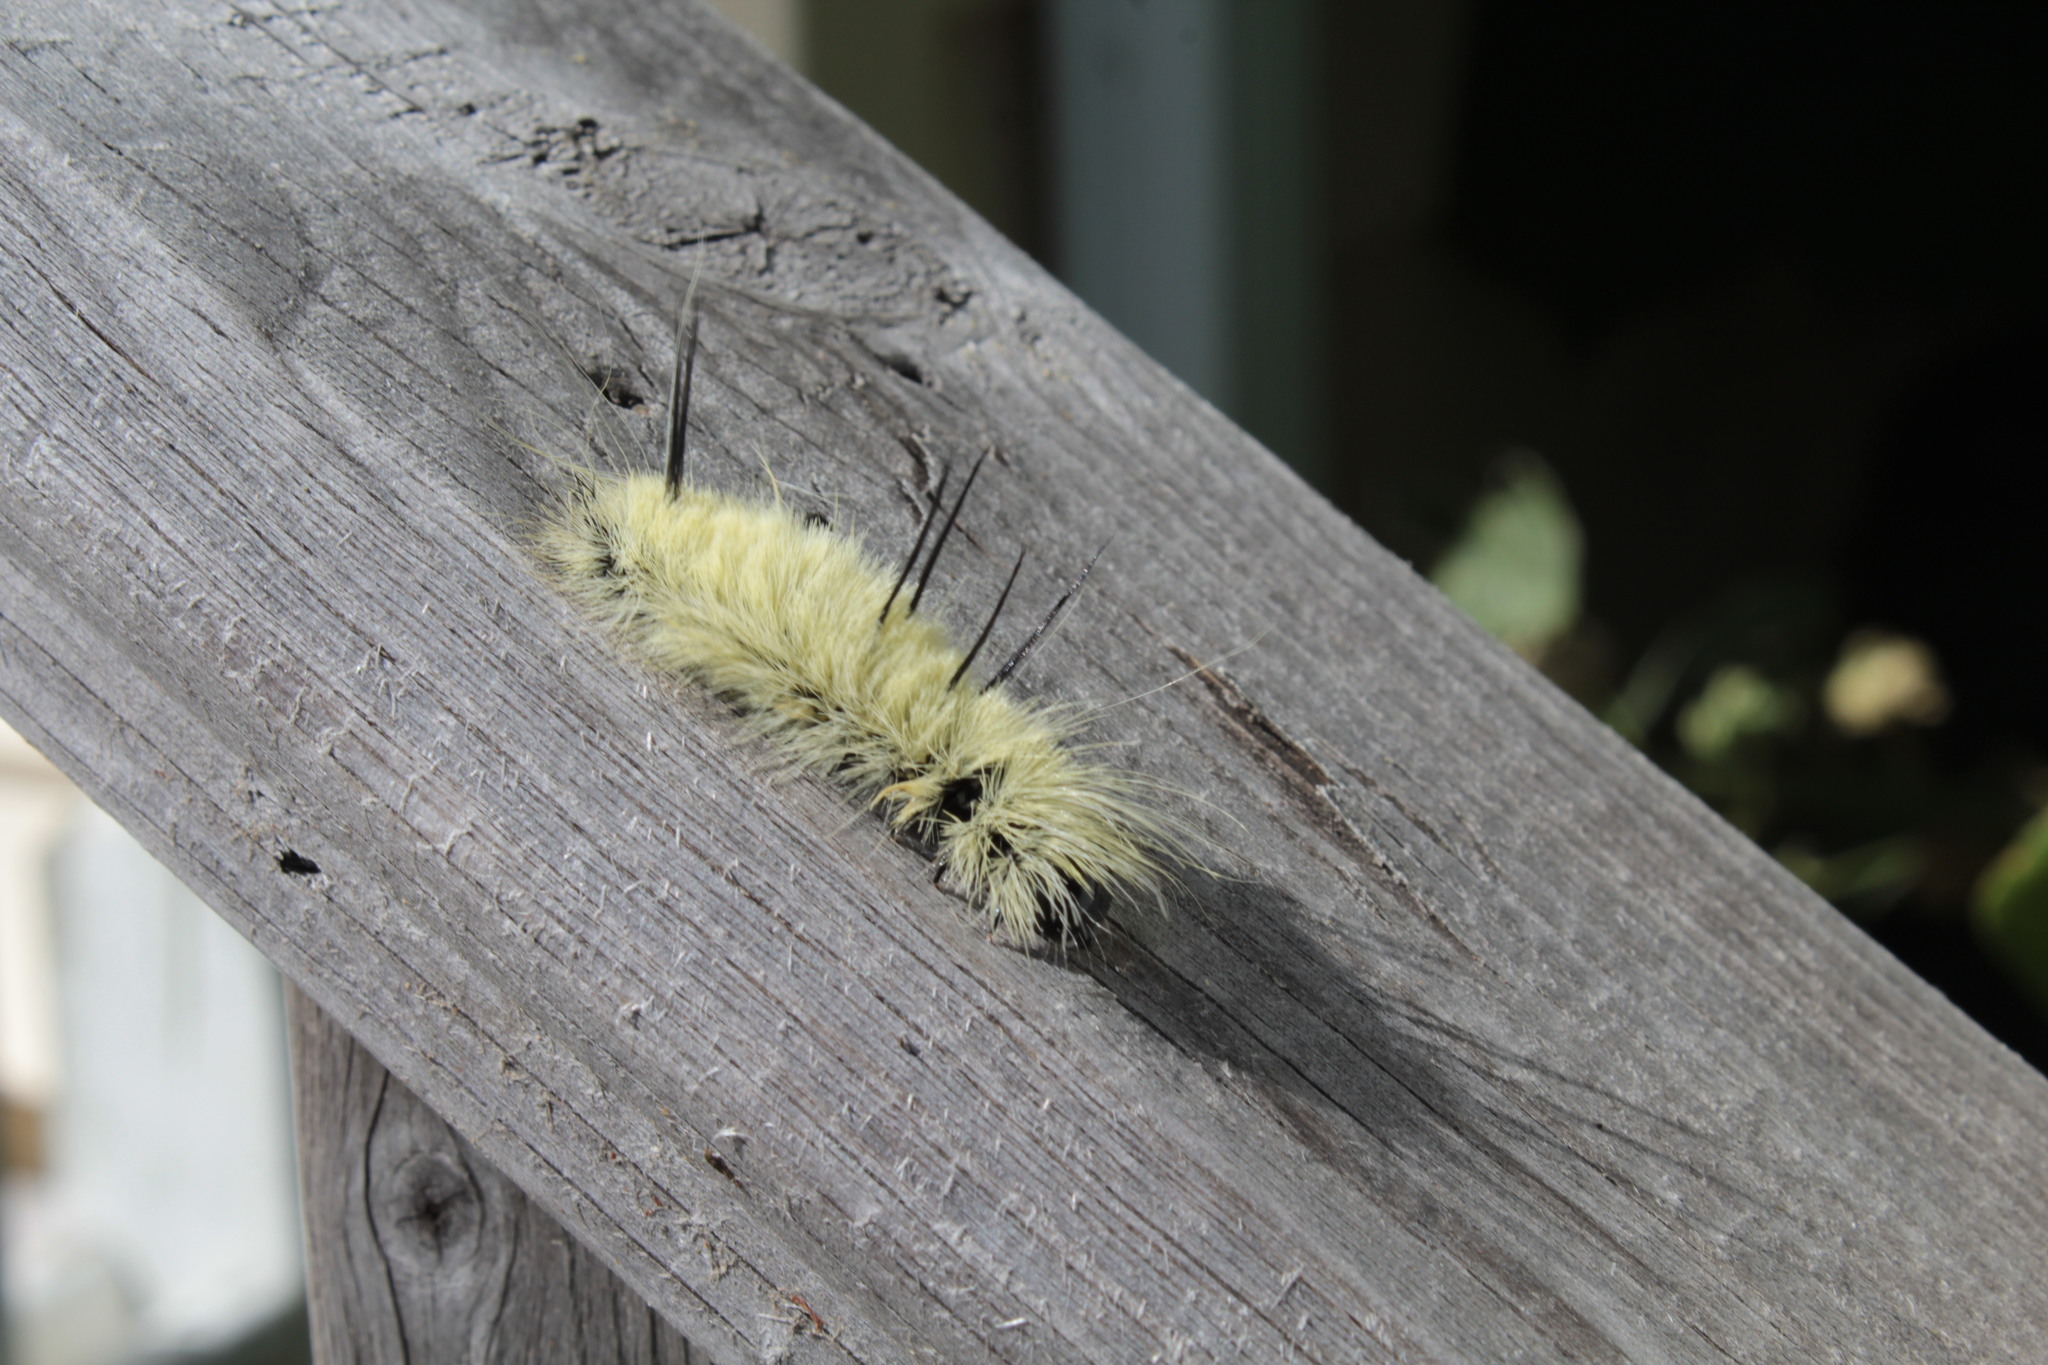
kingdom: Animalia
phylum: Arthropoda
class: Insecta
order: Lepidoptera
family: Noctuidae
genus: Acronicta
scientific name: Acronicta americana
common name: American dagger
